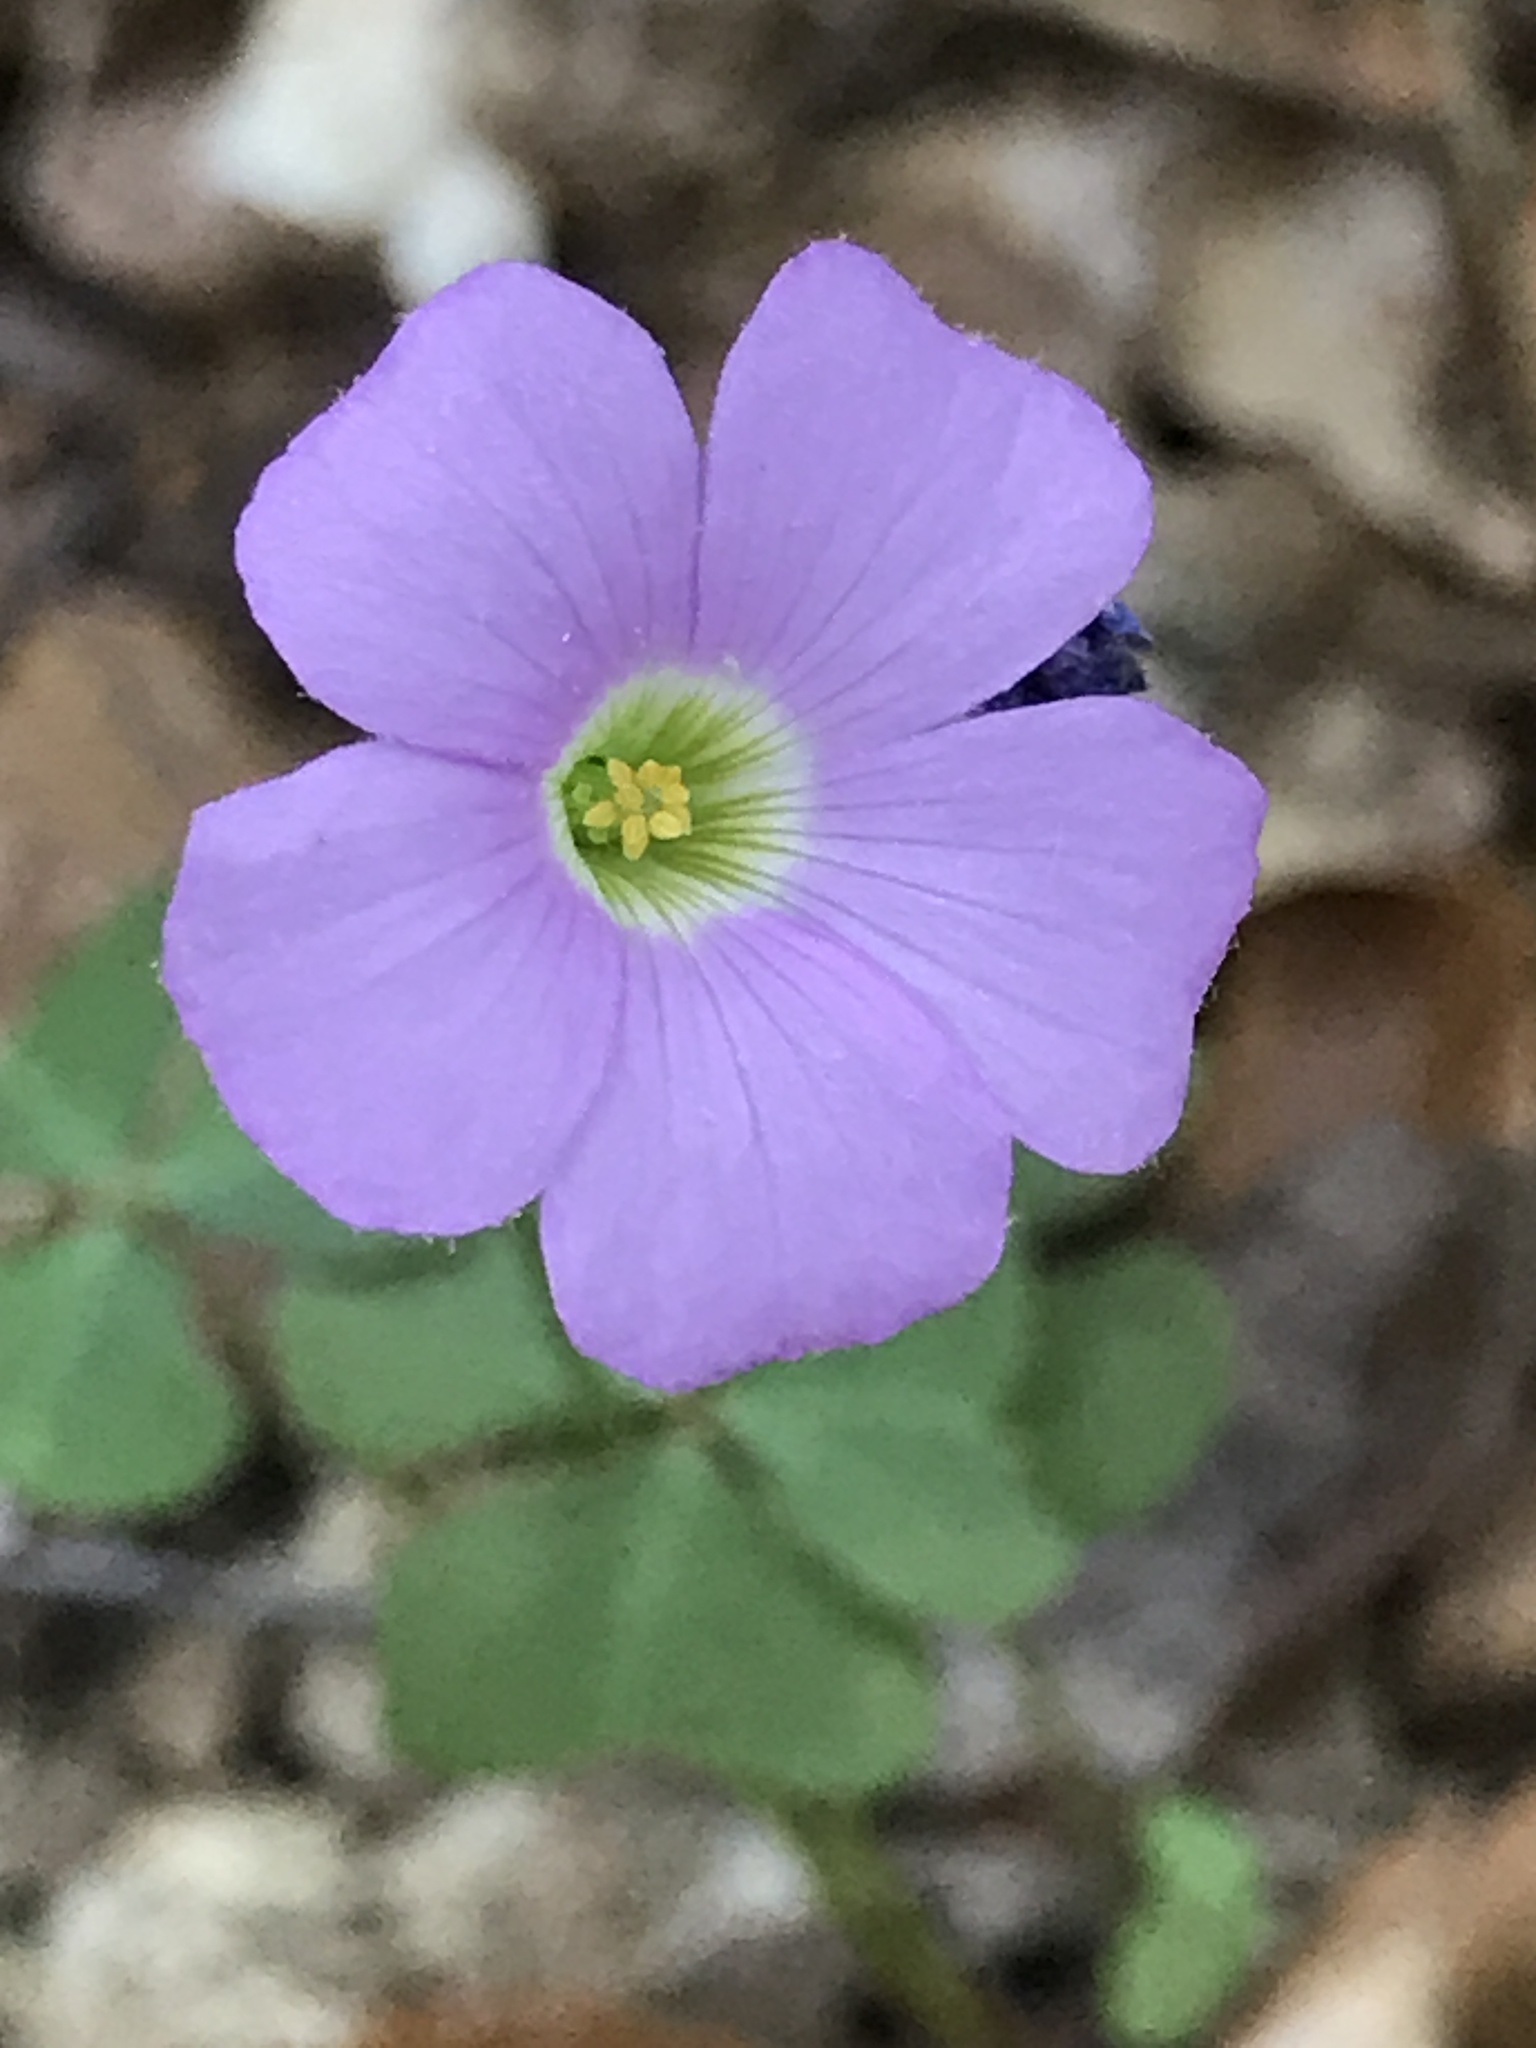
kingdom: Plantae
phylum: Tracheophyta
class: Magnoliopsida
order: Oxalidales
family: Oxalidaceae
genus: Oxalis
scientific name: Oxalis violacea
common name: Violet wood-sorrel
